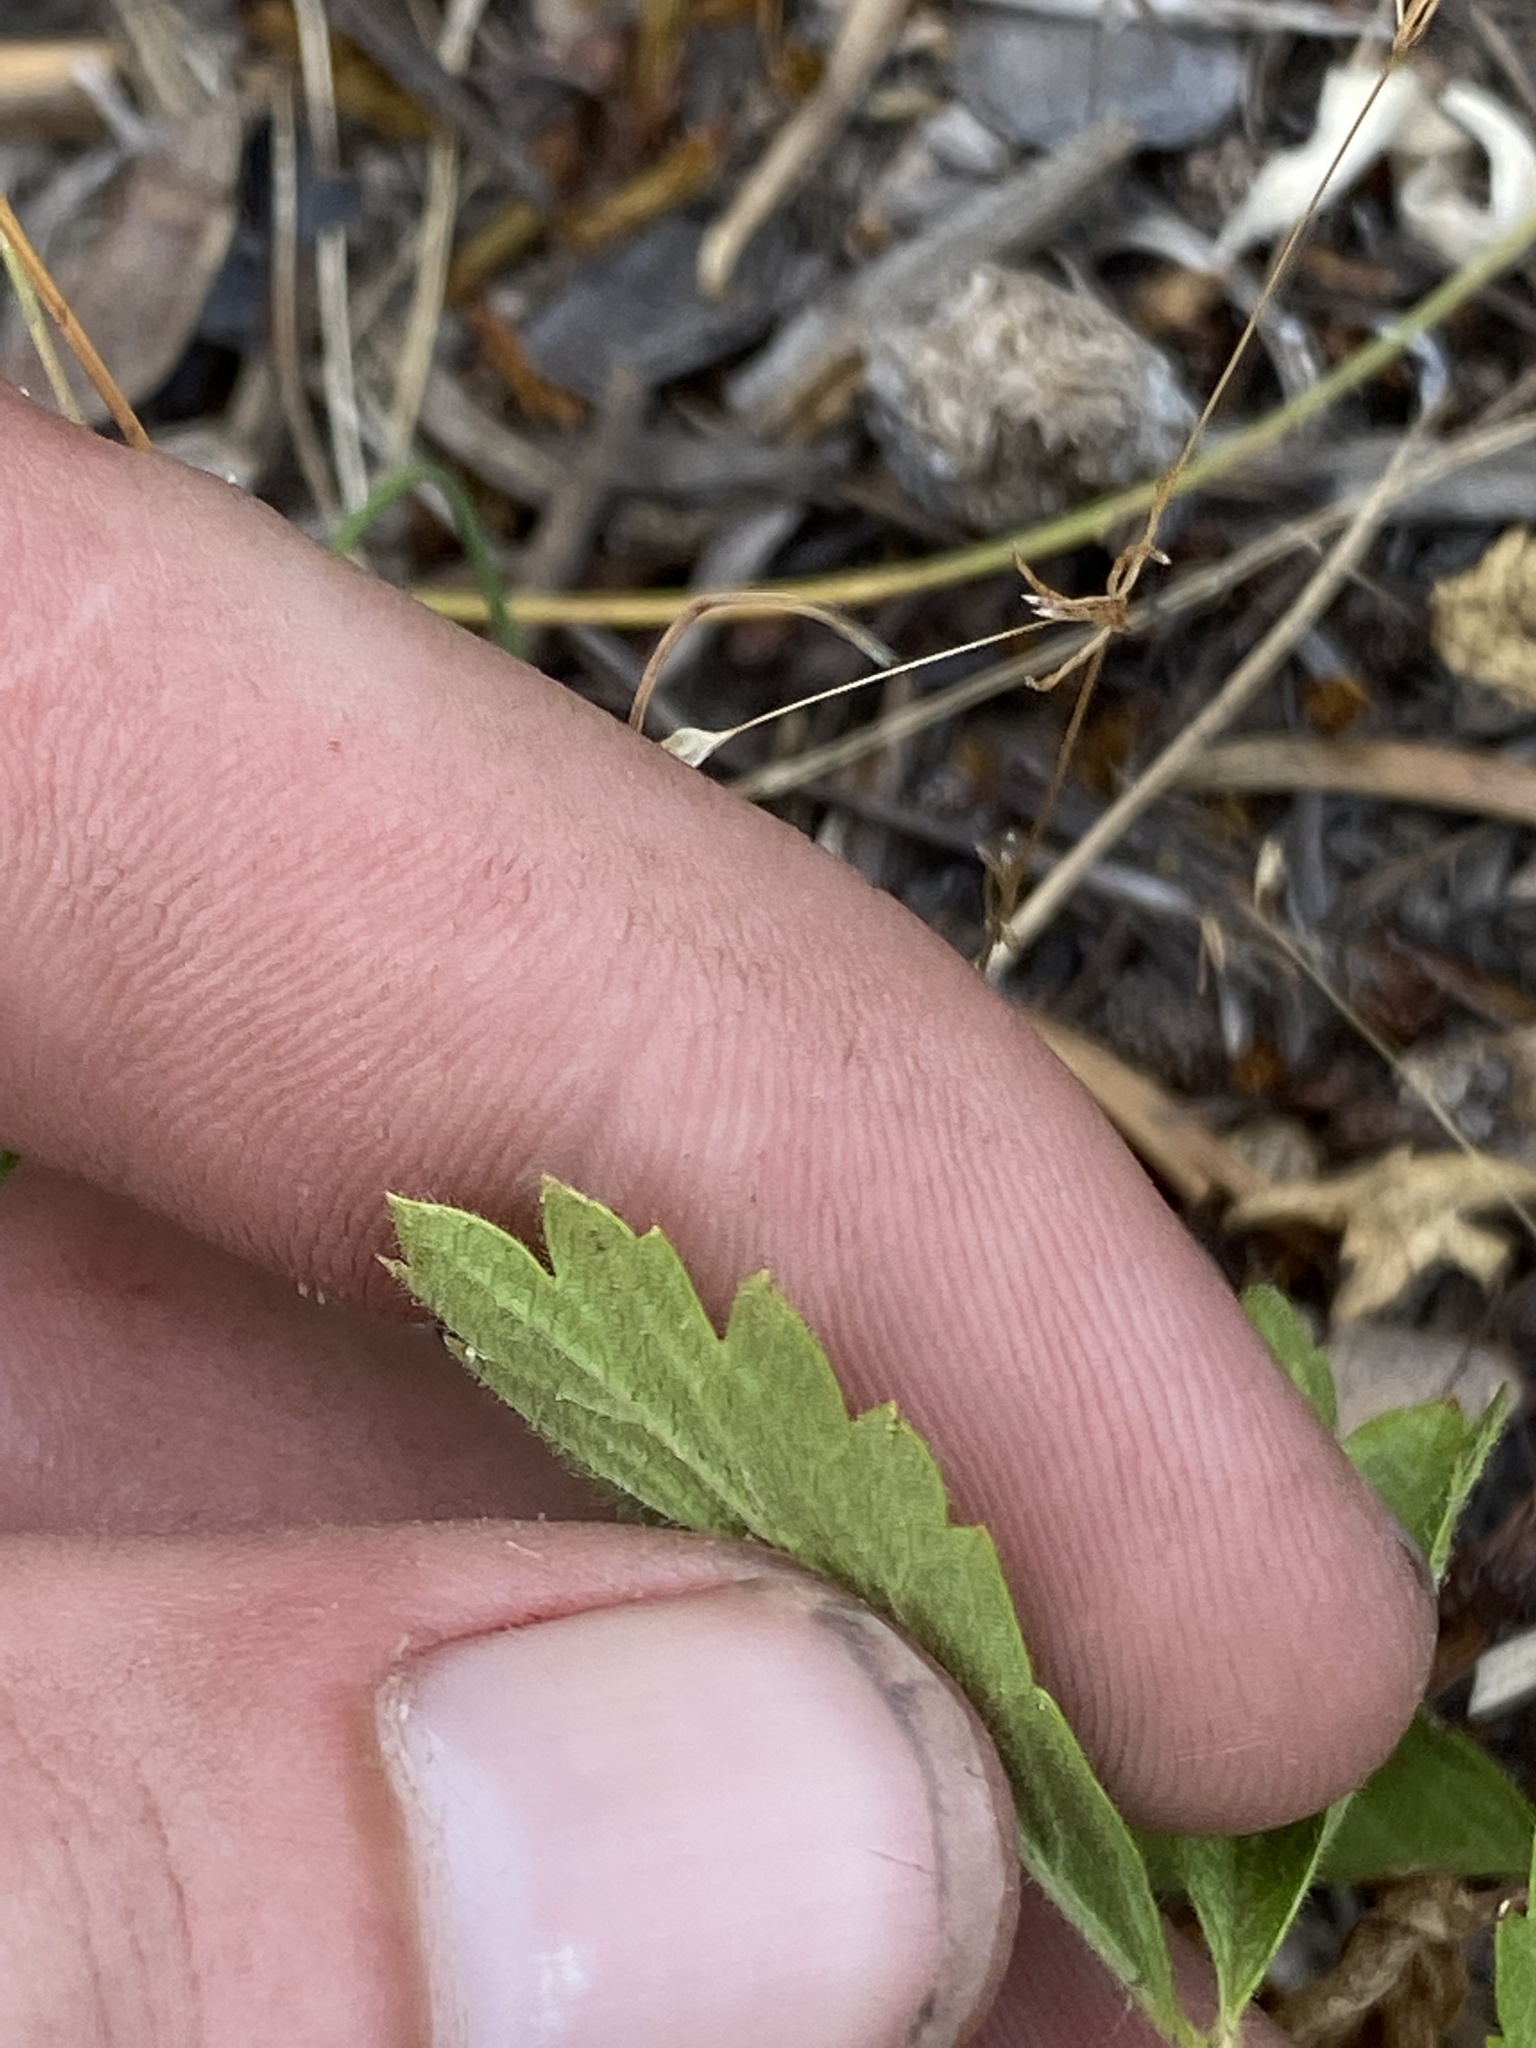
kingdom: Plantae
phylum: Tracheophyta
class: Magnoliopsida
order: Rosales
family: Rosaceae
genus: Potentilla
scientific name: Potentilla douglasii
